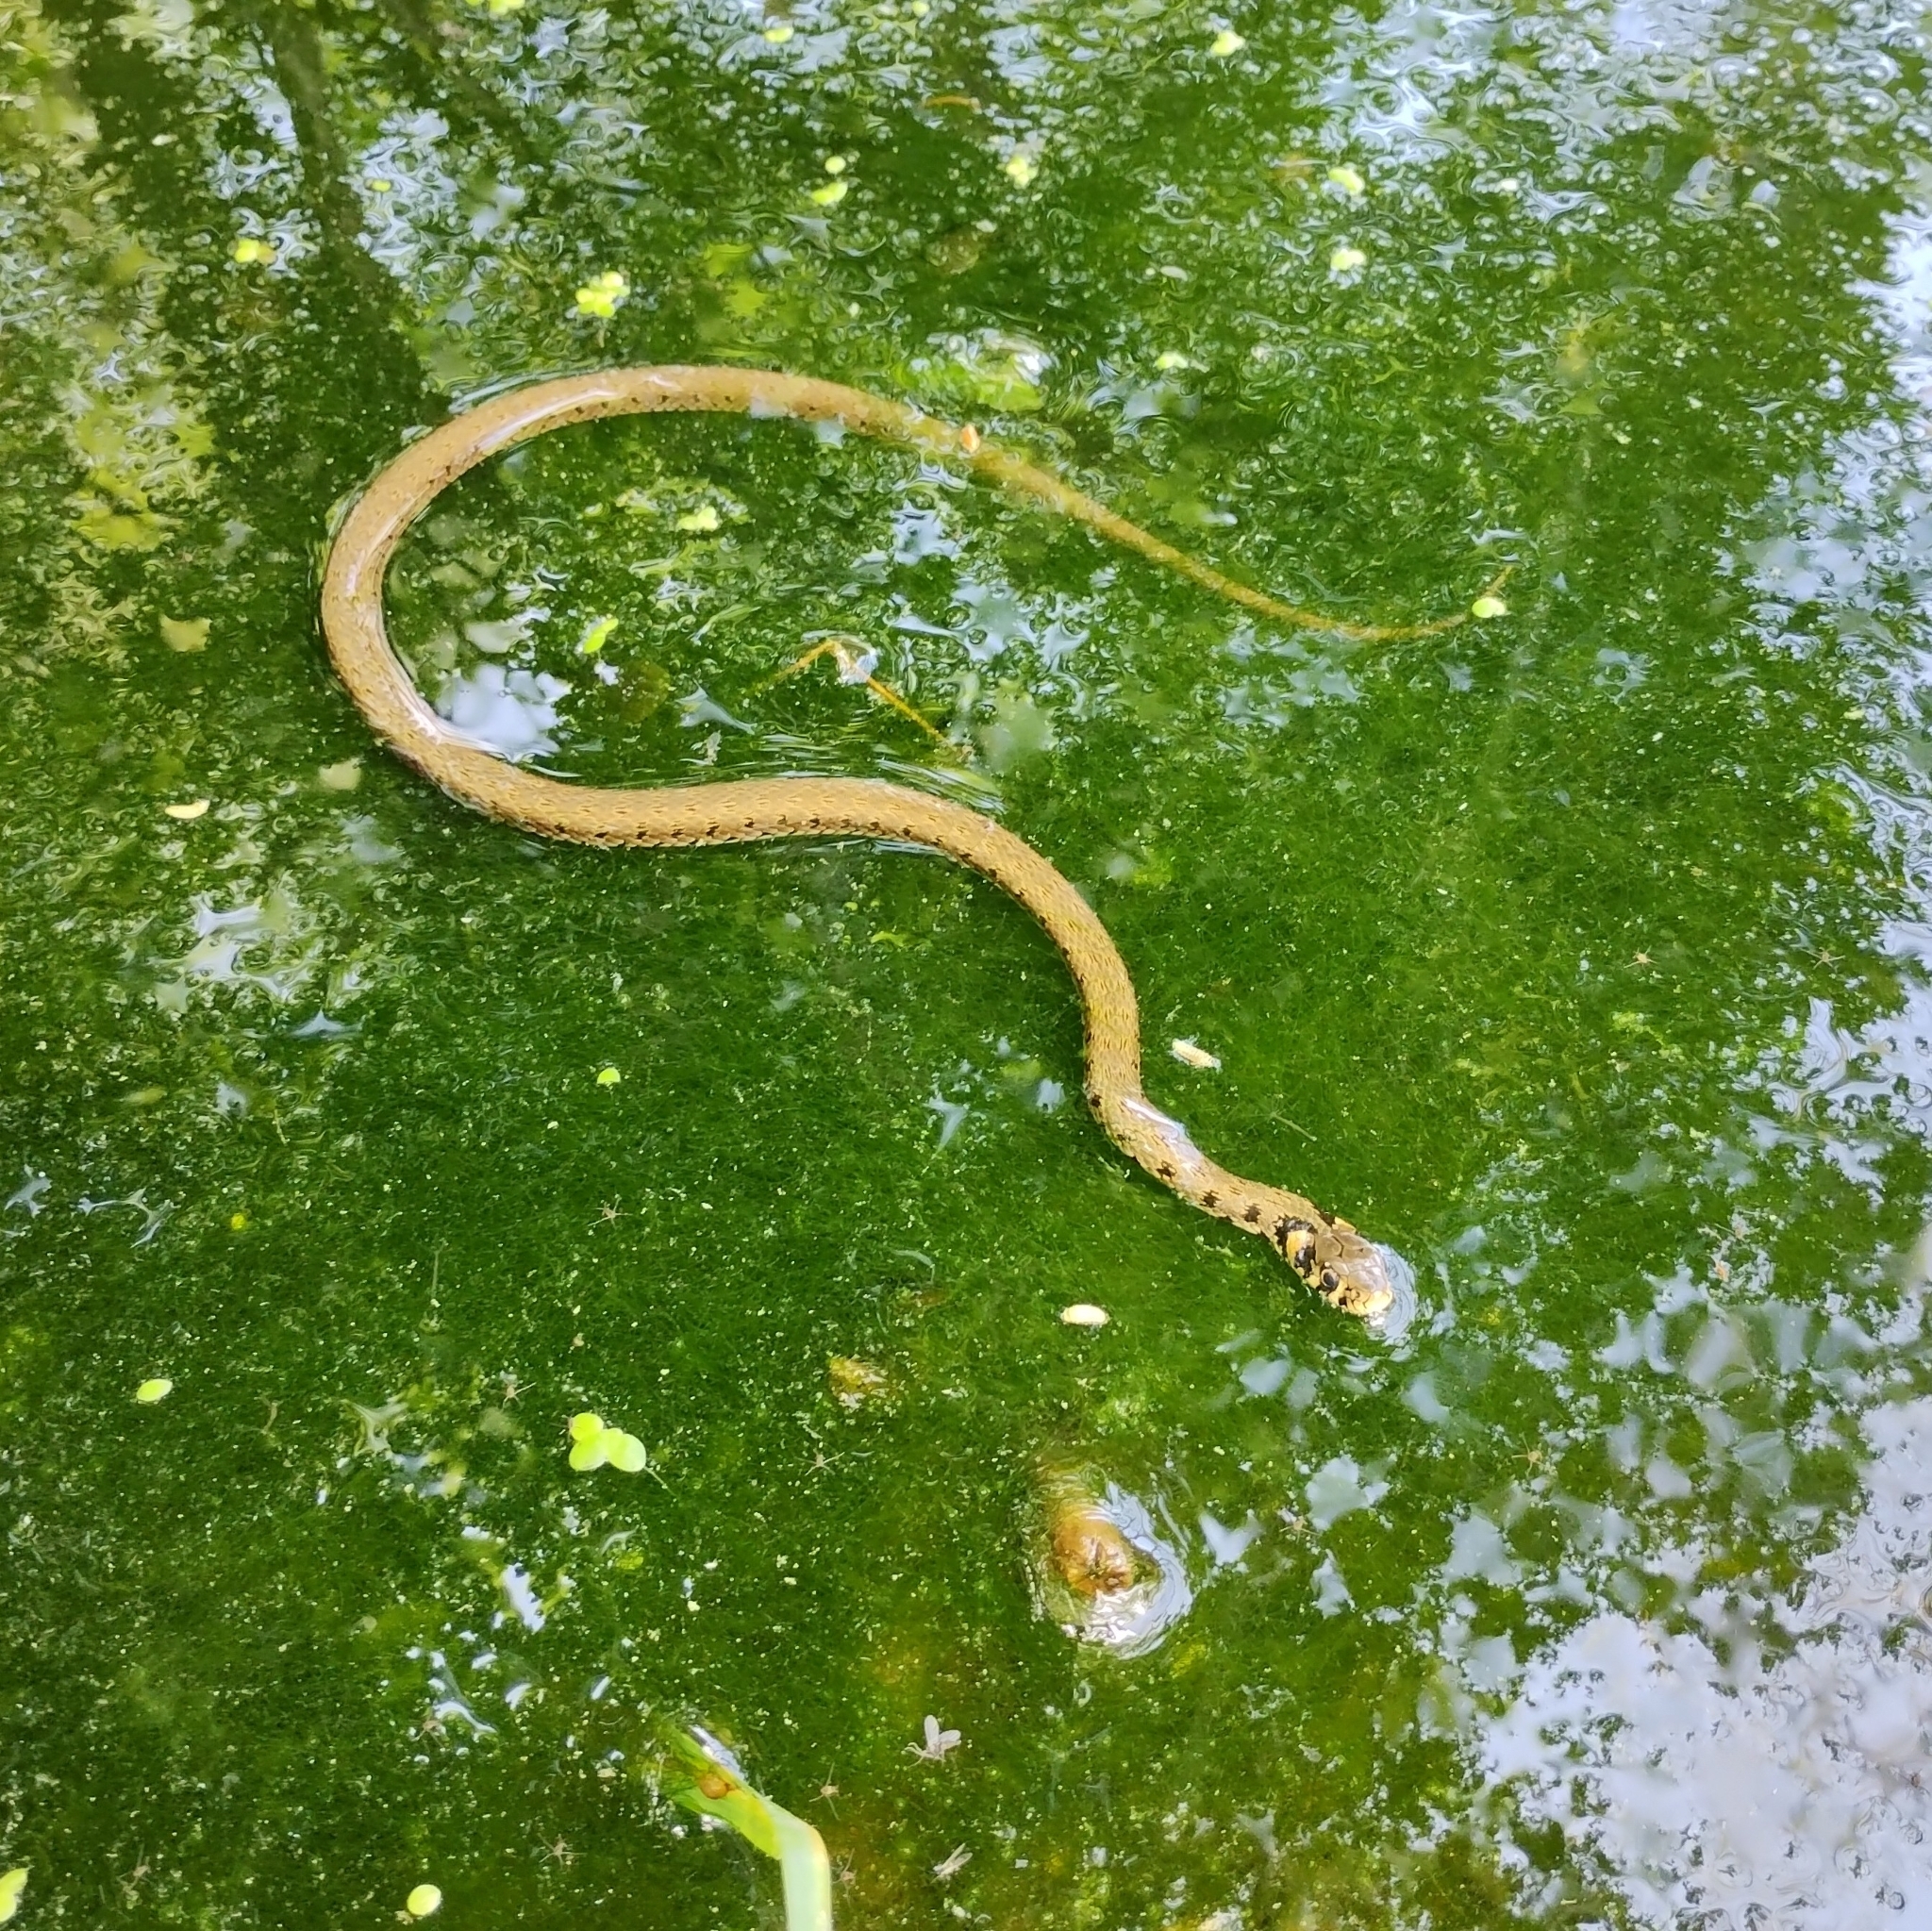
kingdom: Animalia
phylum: Chordata
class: Squamata
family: Colubridae
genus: Natrix
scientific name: Natrix natrix
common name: Grass snake
